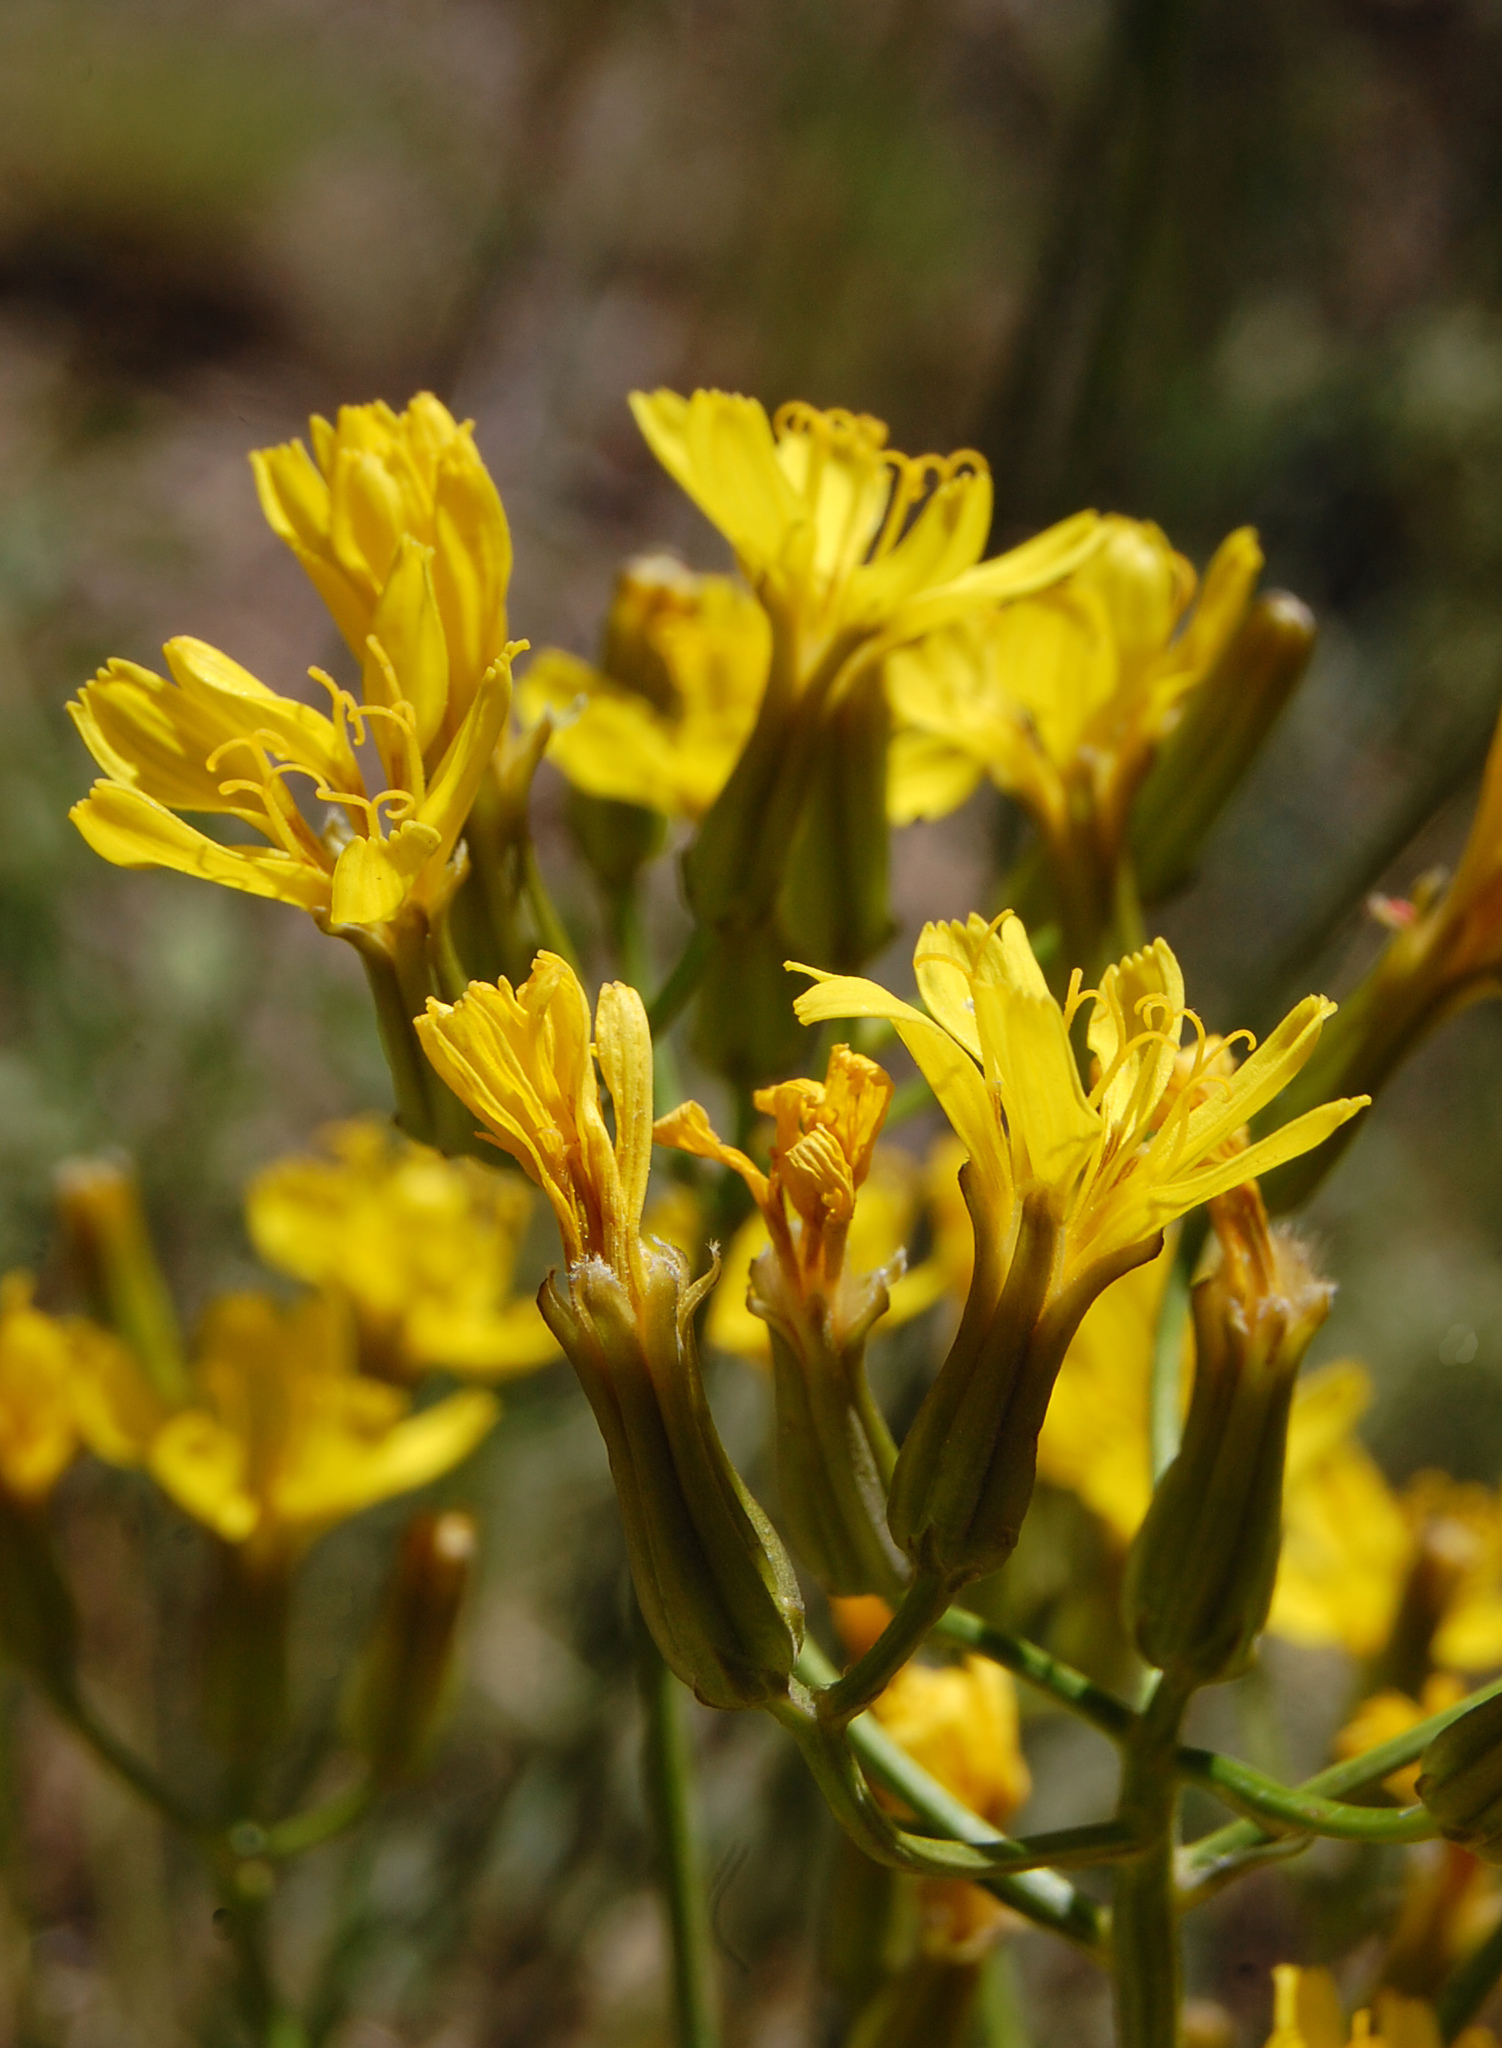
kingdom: Plantae
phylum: Tracheophyta
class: Magnoliopsida
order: Asterales
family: Asteraceae
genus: Crepis
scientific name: Crepis acuminata
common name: Longleaf hawk's-beard
